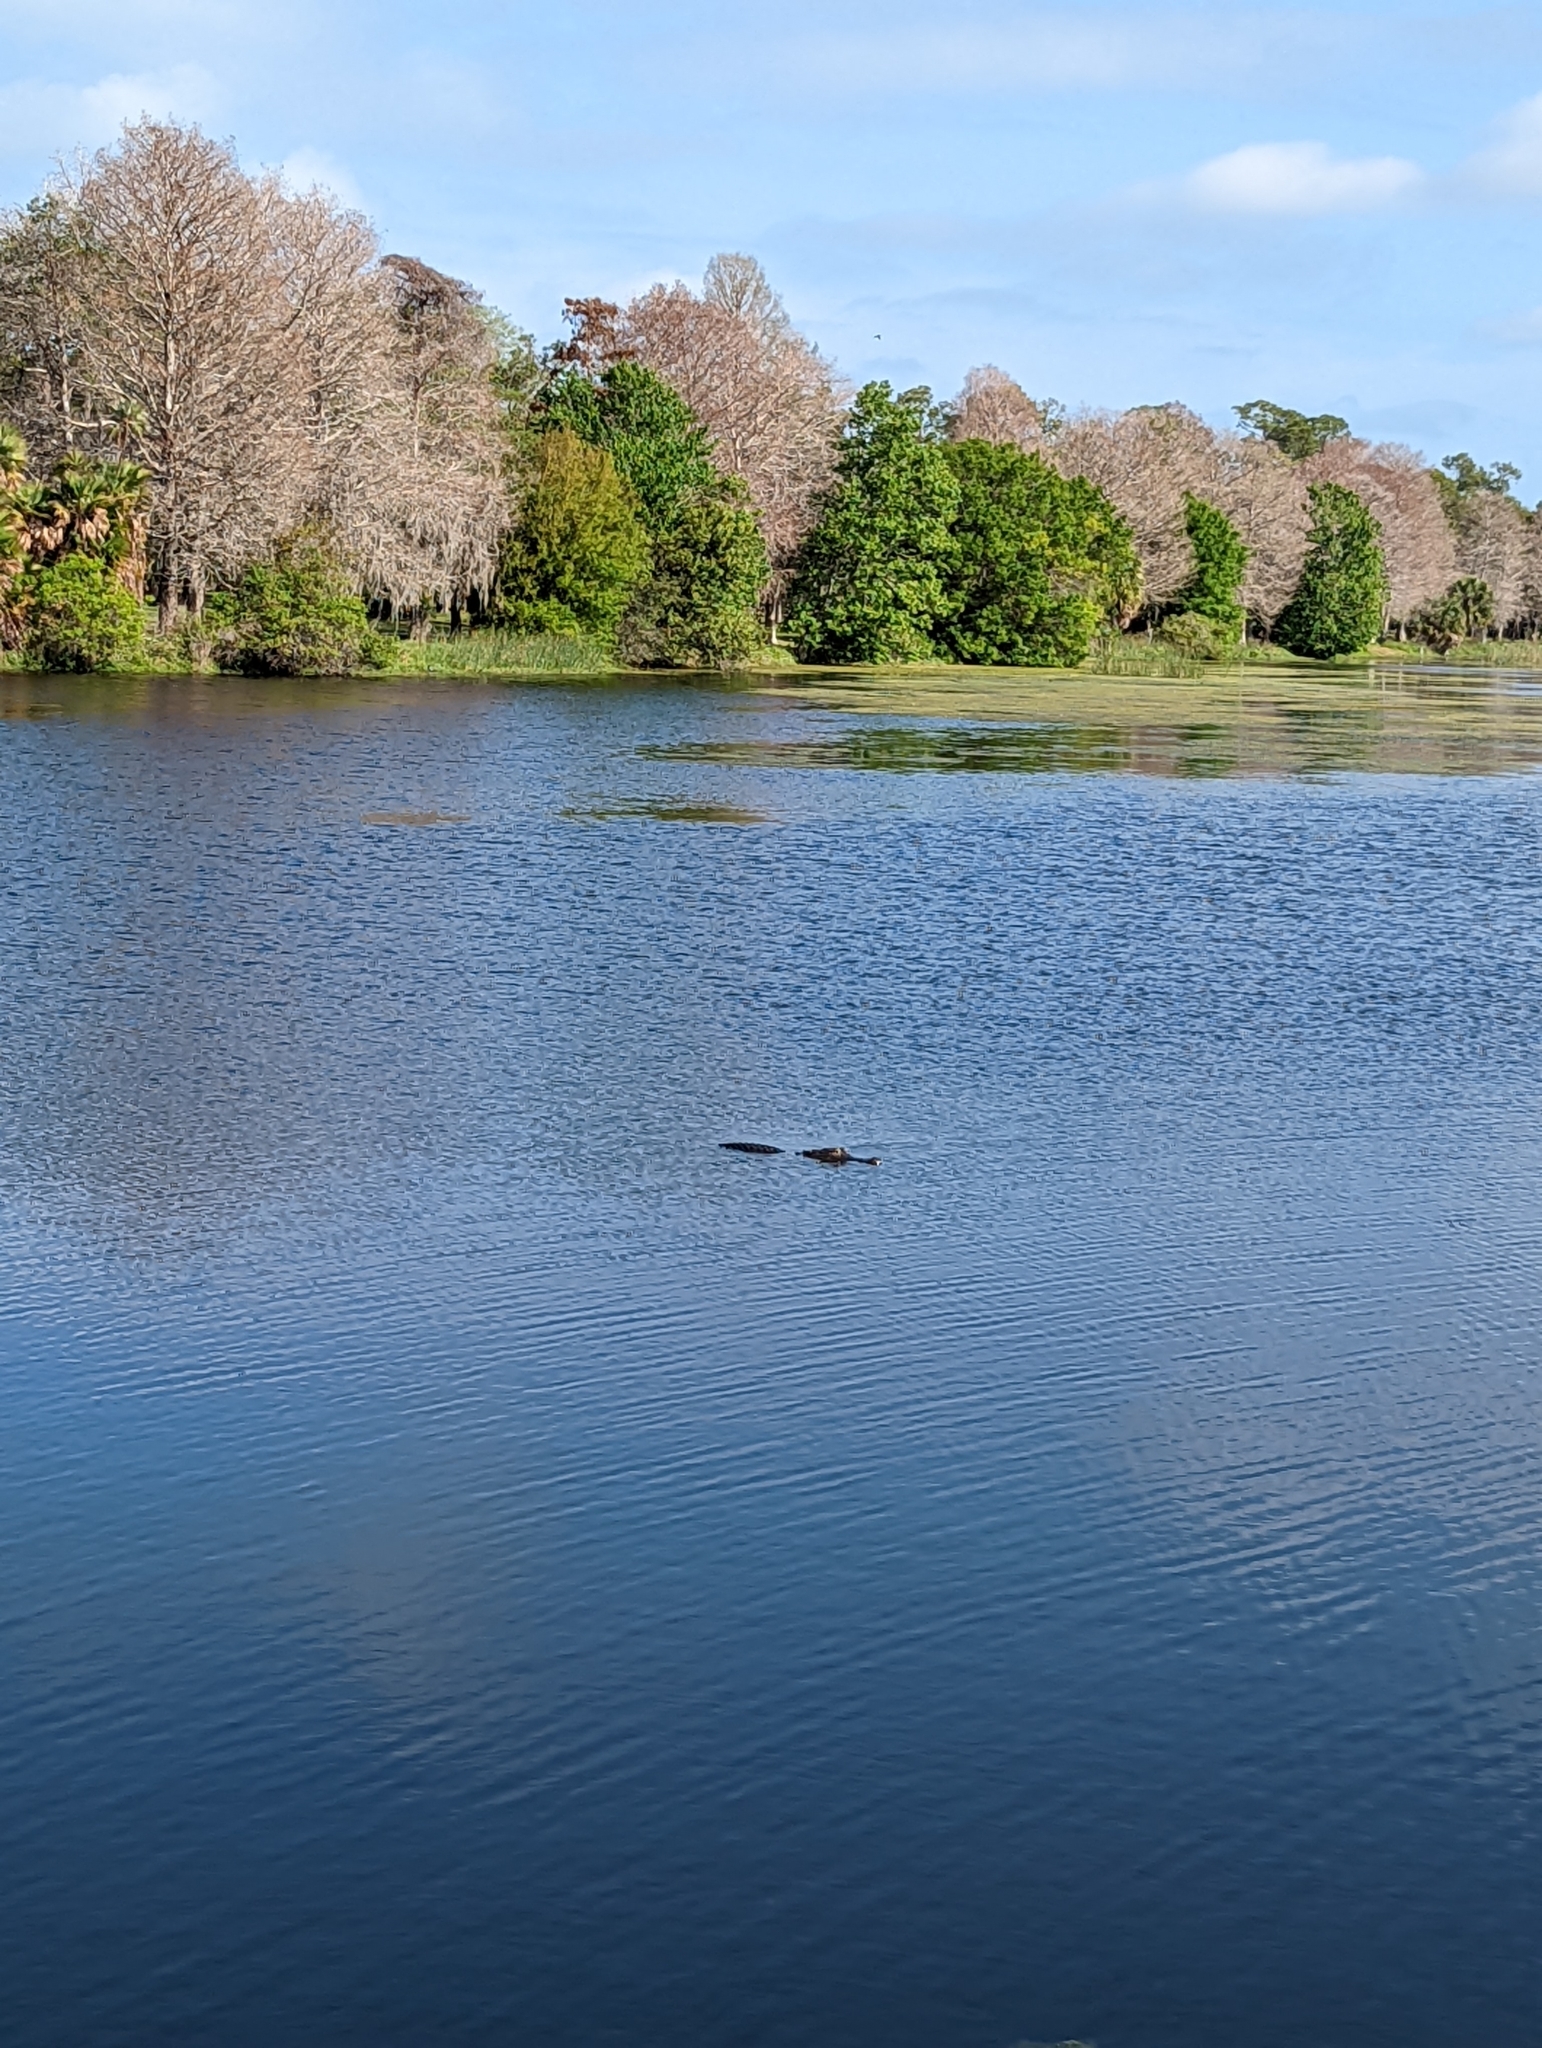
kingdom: Animalia
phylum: Chordata
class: Crocodylia
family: Alligatoridae
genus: Alligator
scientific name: Alligator mississippiensis
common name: American alligator
